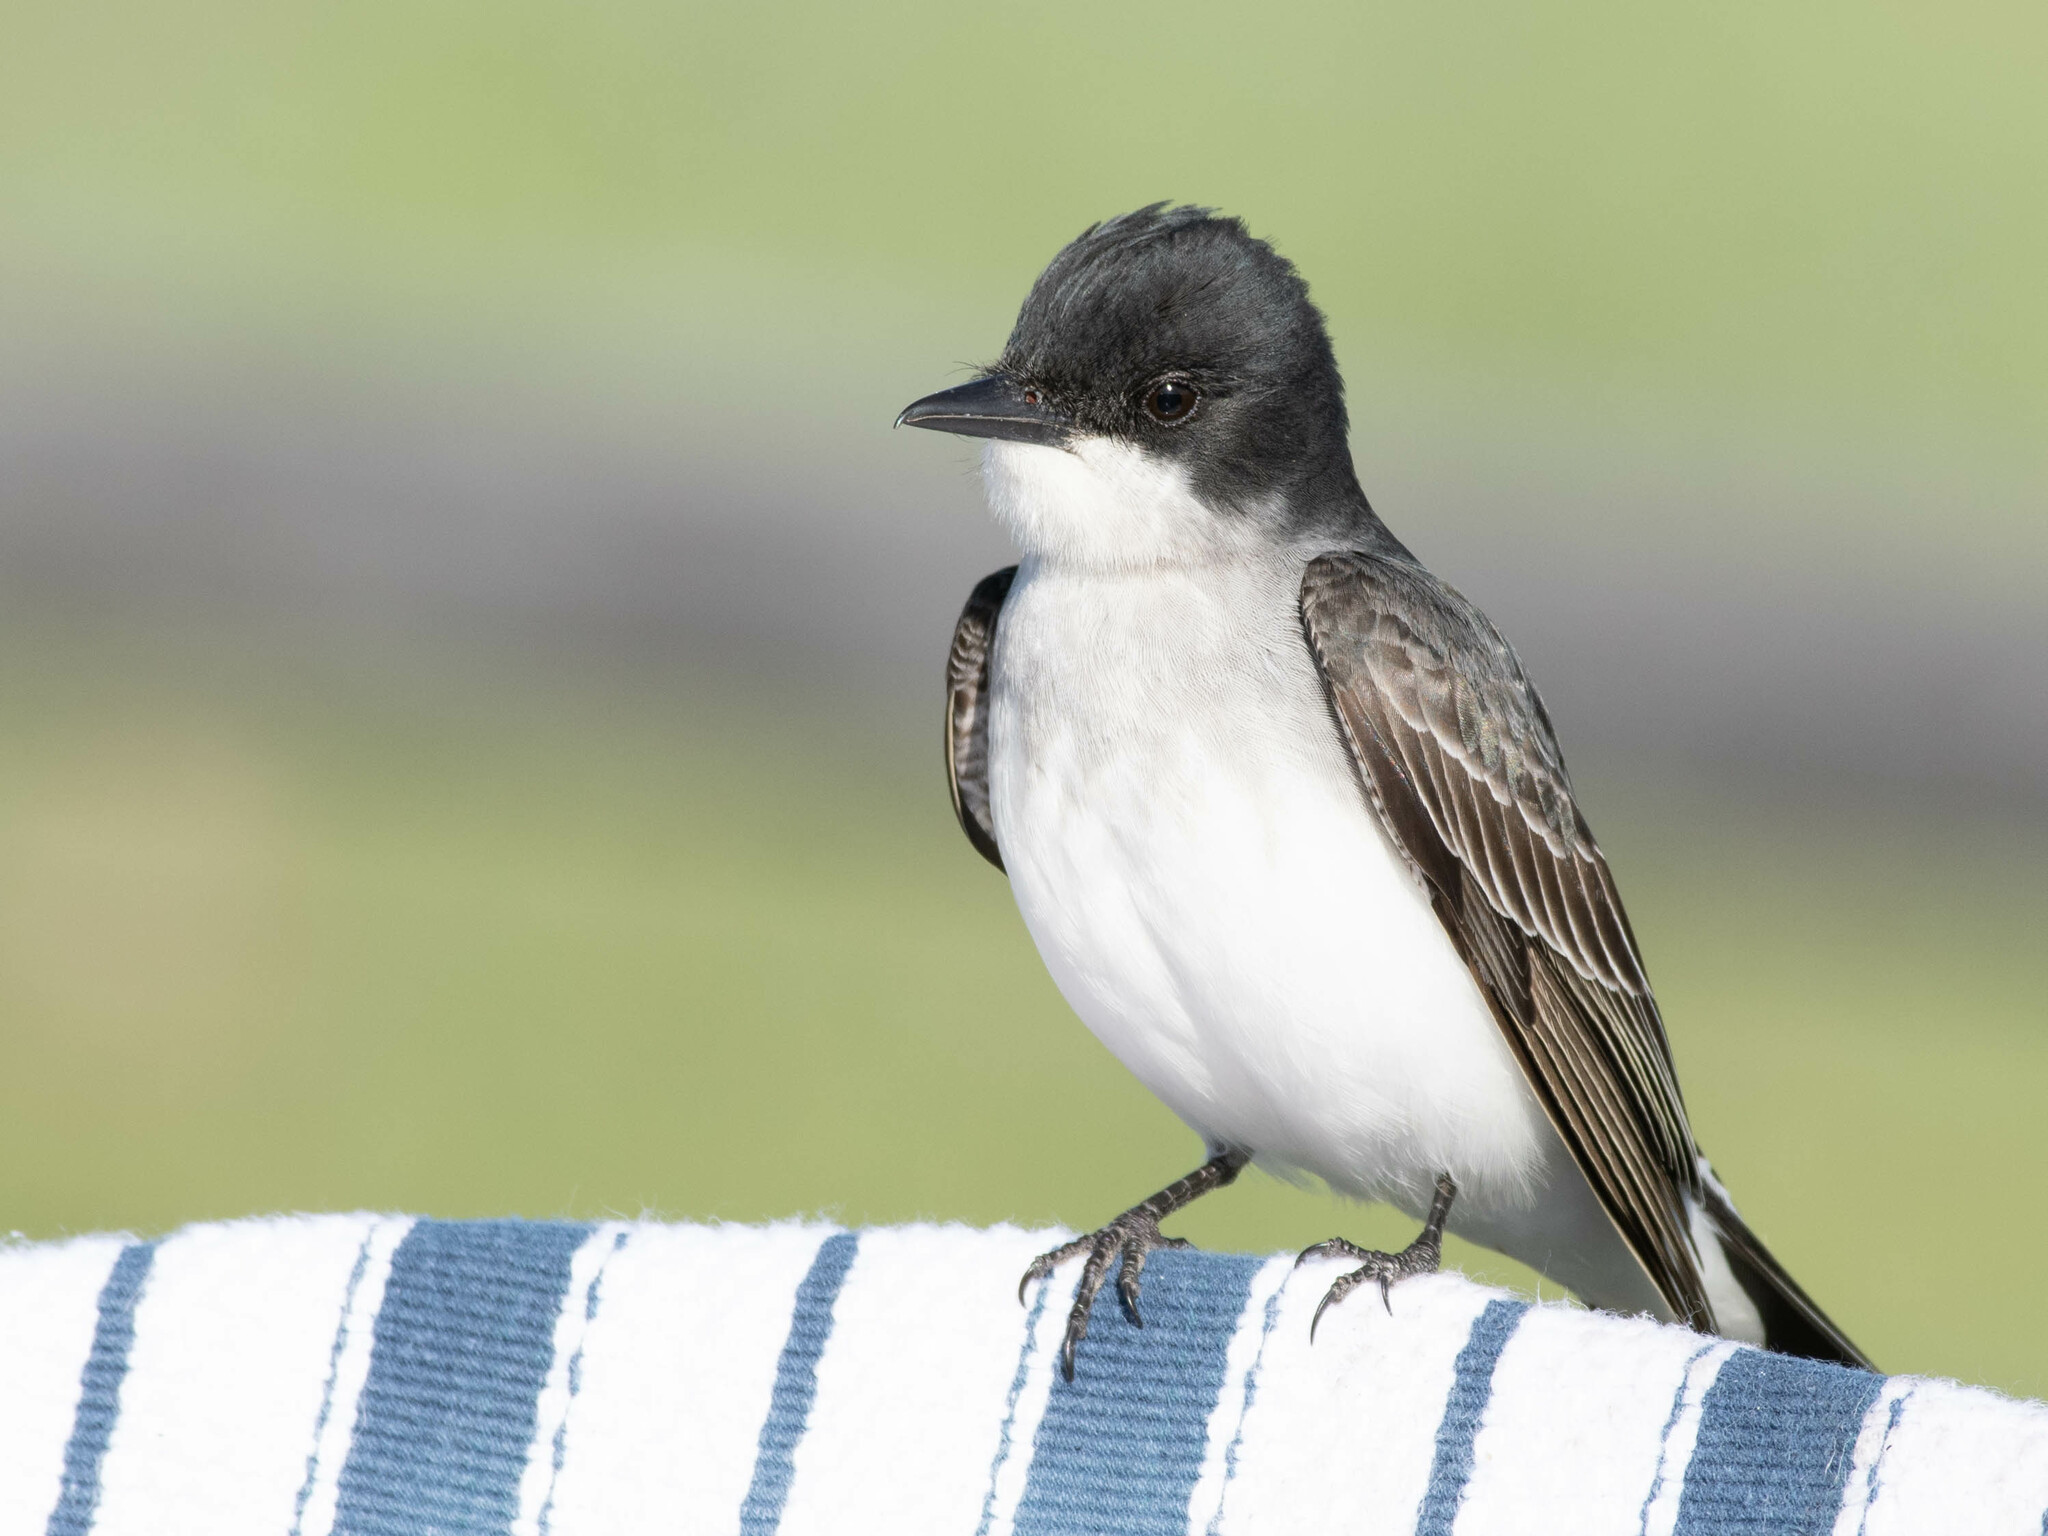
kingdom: Animalia
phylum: Chordata
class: Aves
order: Passeriformes
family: Tyrannidae
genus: Tyrannus
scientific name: Tyrannus tyrannus
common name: Eastern kingbird
